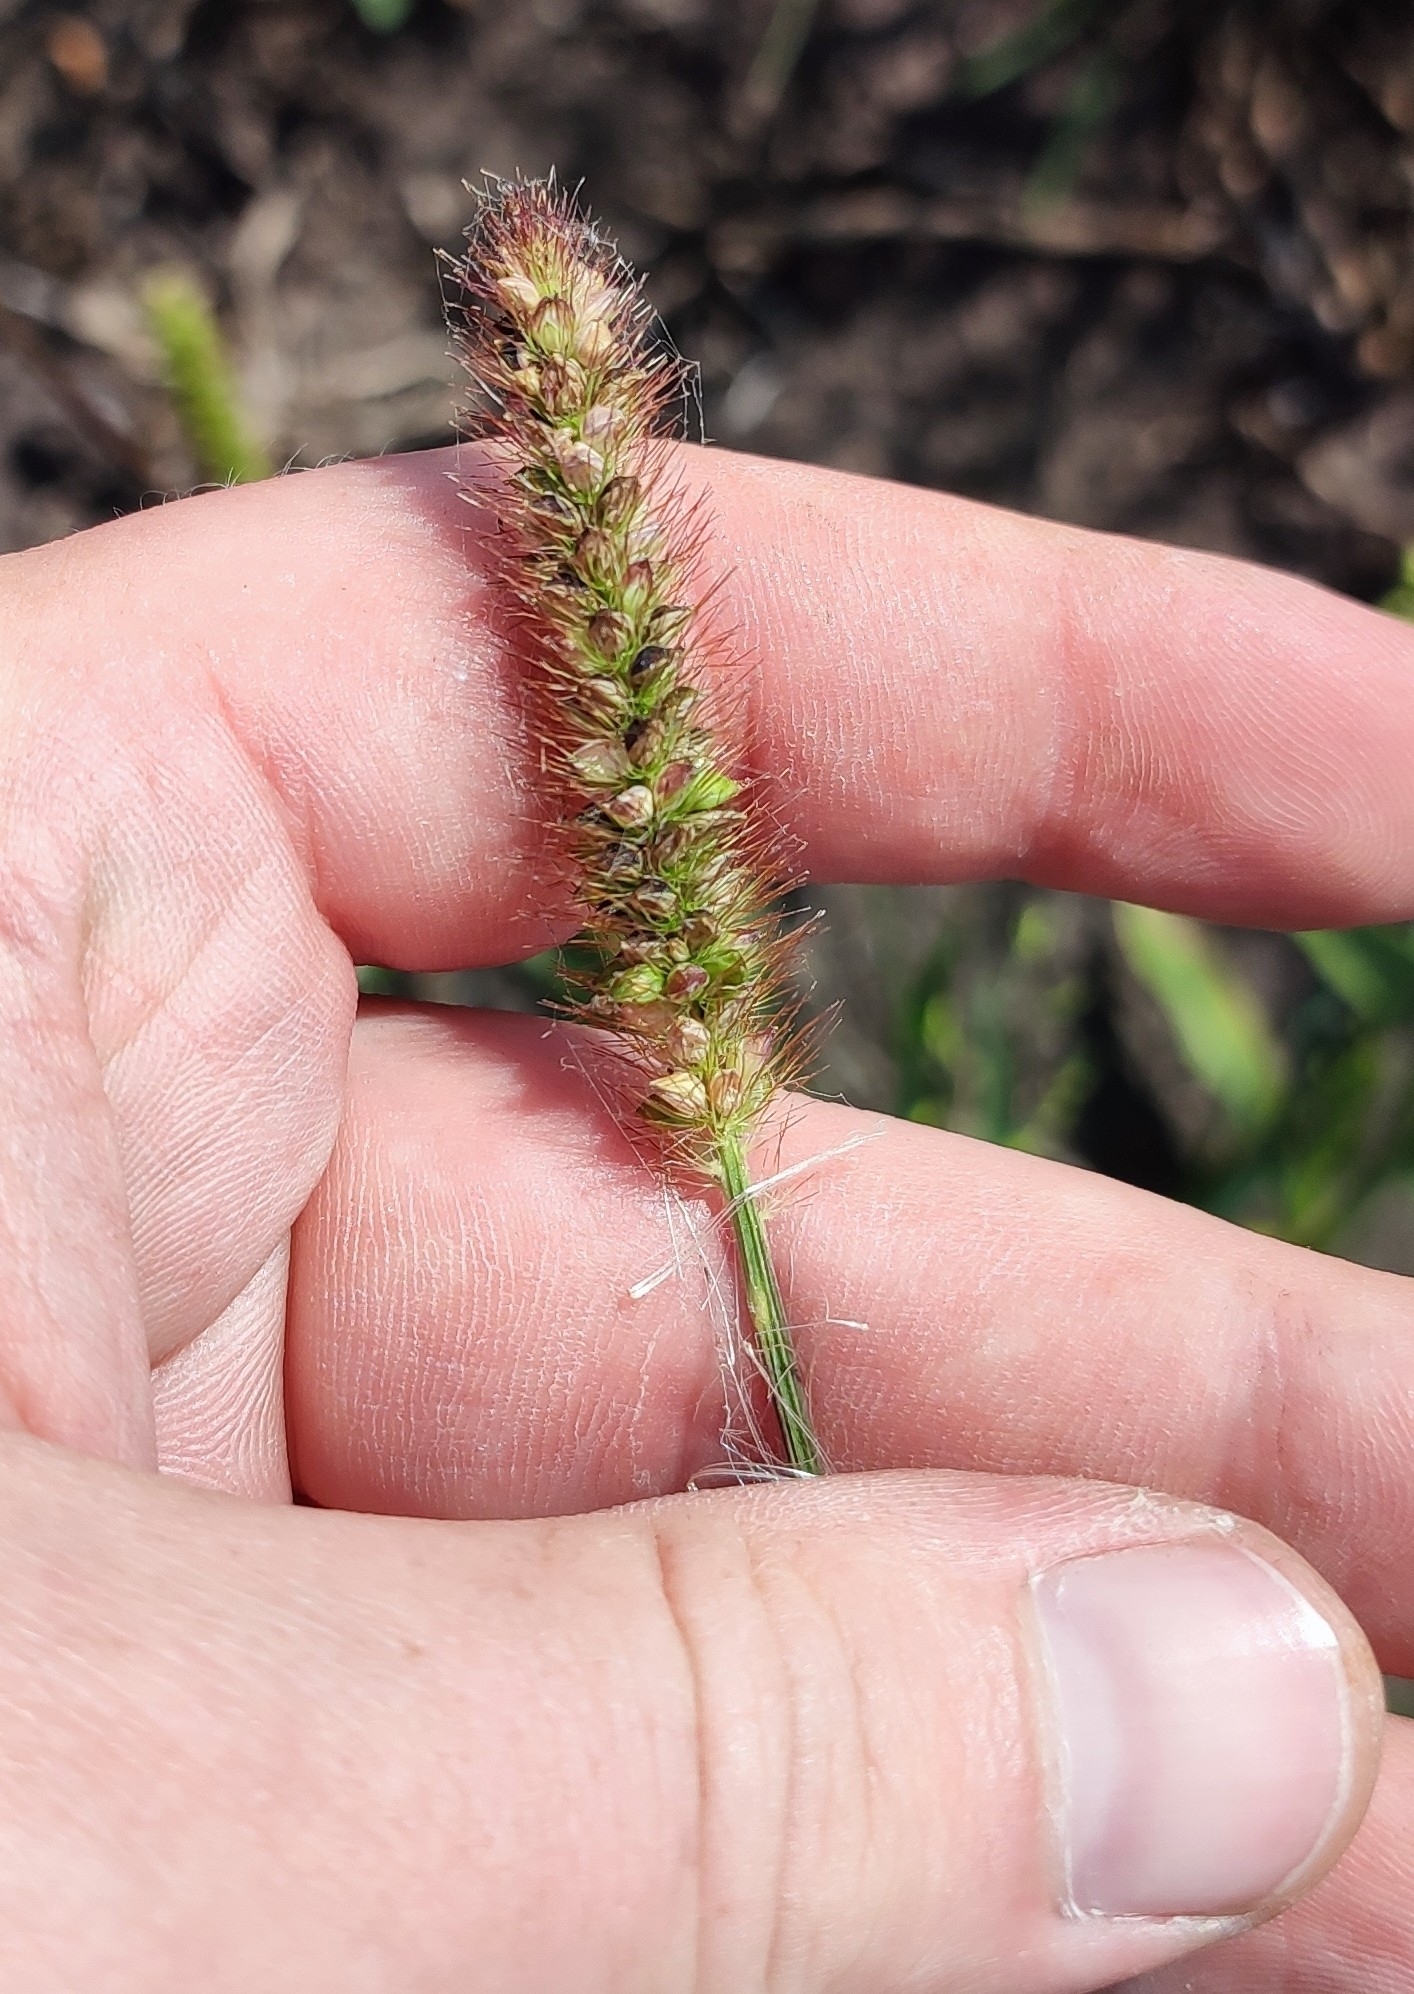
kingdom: Plantae
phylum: Tracheophyta
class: Liliopsida
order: Poales
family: Poaceae
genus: Setaria
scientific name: Setaria pumila
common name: Yellow bristle-grass
